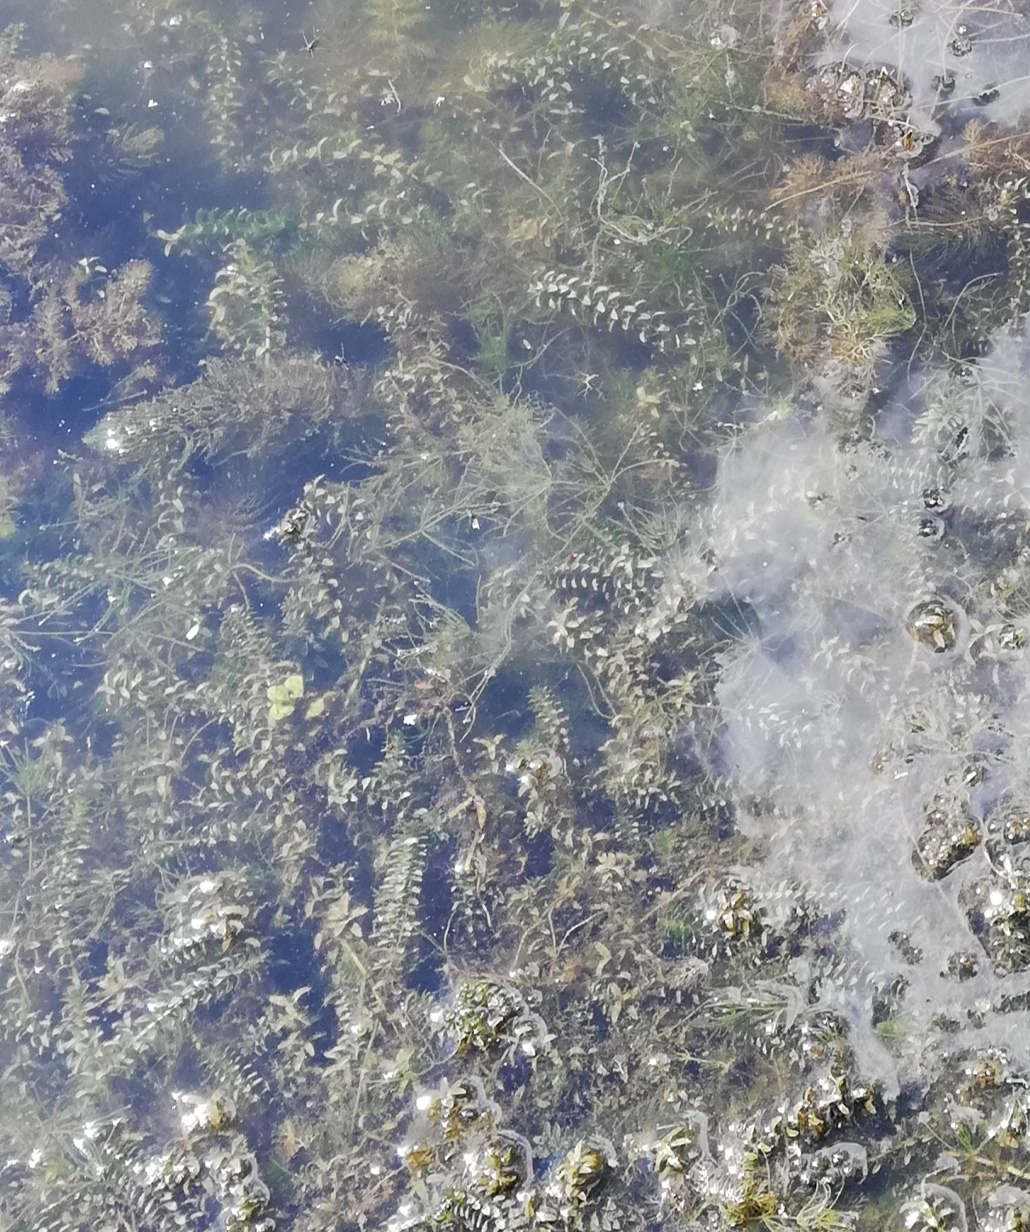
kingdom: Plantae
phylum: Tracheophyta
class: Liliopsida
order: Alismatales
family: Hydrocharitaceae
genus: Elodea
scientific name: Elodea canadensis
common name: Canadian waterweed
